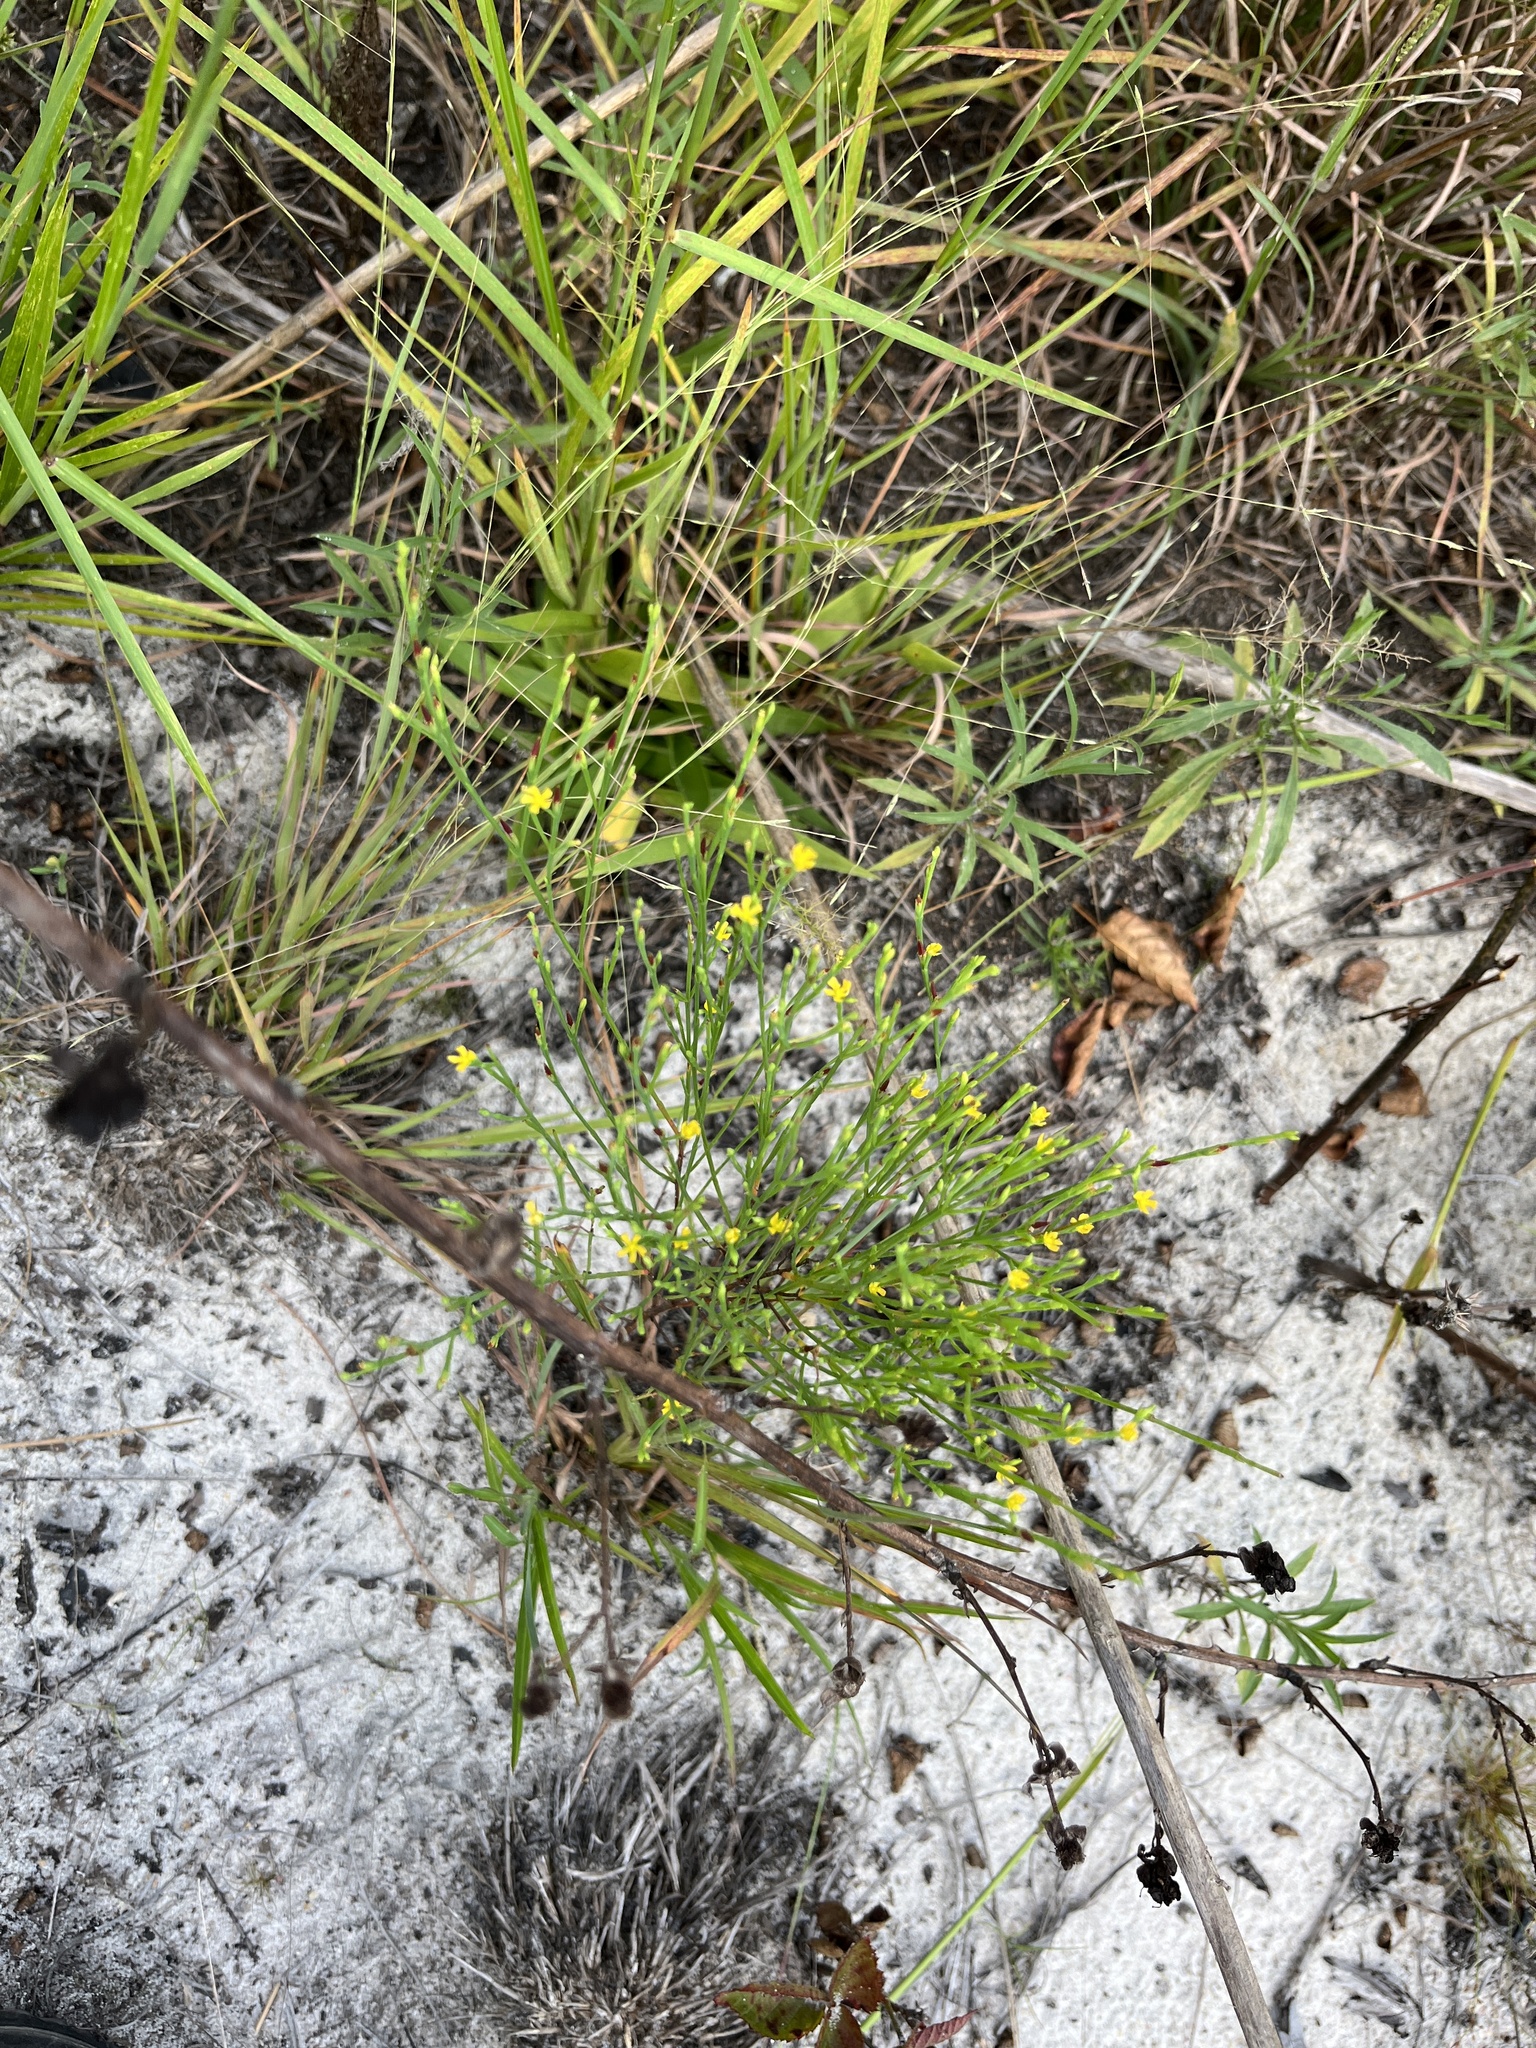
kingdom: Plantae
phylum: Tracheophyta
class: Magnoliopsida
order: Malpighiales
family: Hypericaceae
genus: Hypericum
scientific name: Hypericum gentianoides
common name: Gentian-leaved st. john's-wort
